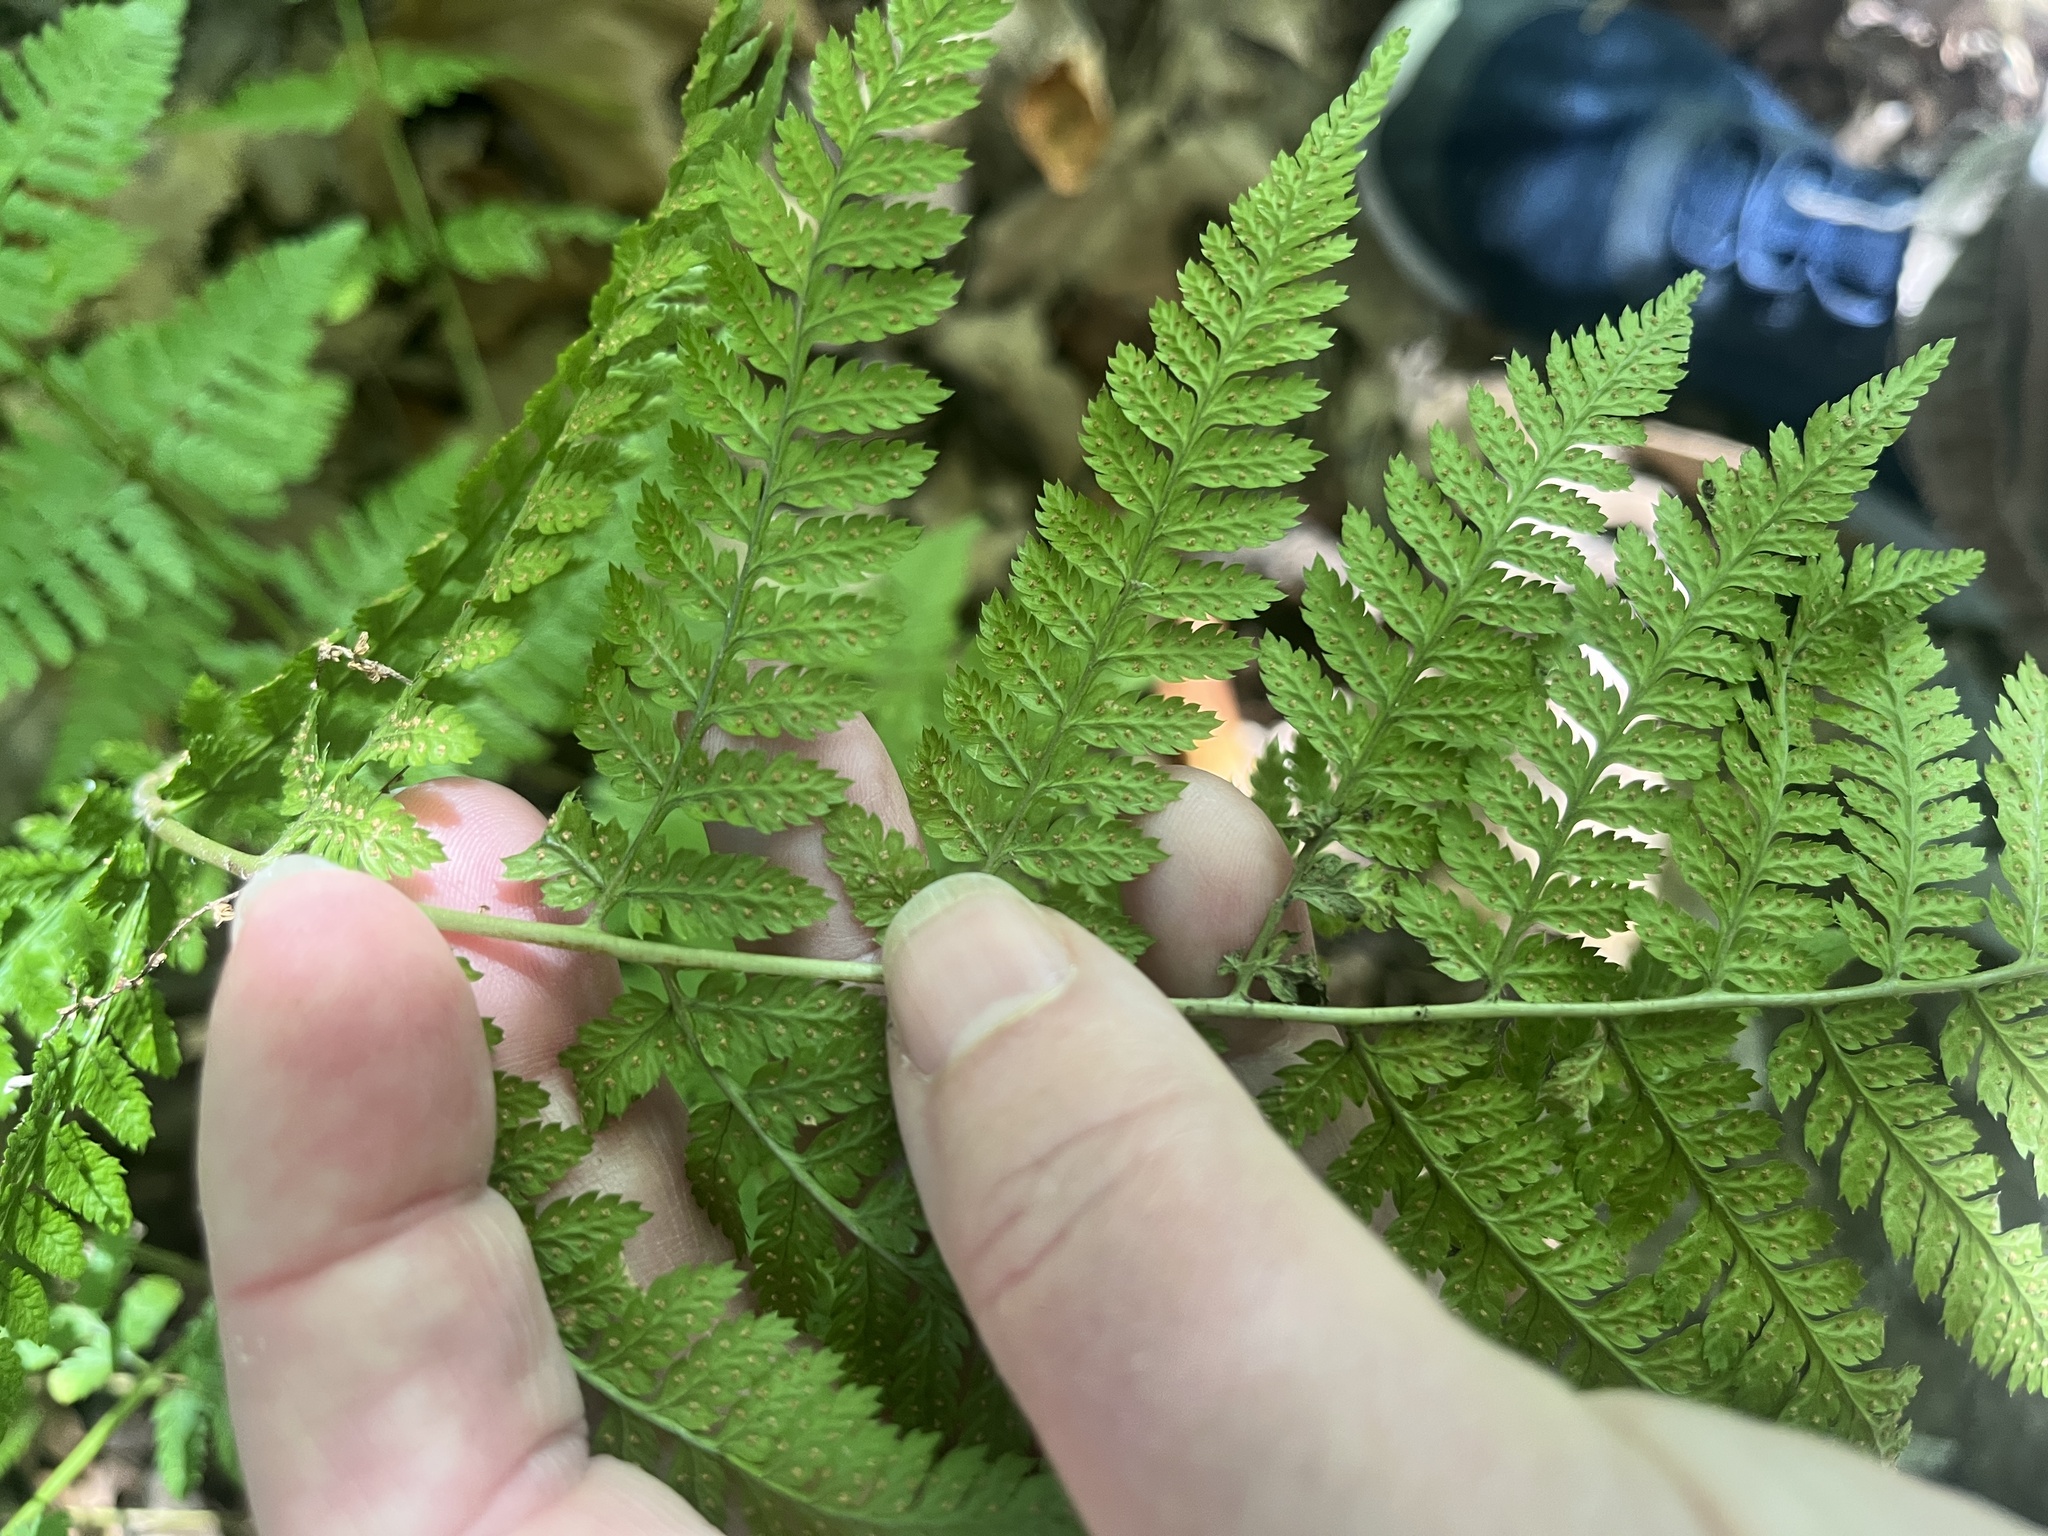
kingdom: Plantae
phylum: Tracheophyta
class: Polypodiopsida
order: Polypodiales
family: Dryopteridaceae
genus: Dryopteris
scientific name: Dryopteris carthusiana
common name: Narrow buckler-fern
